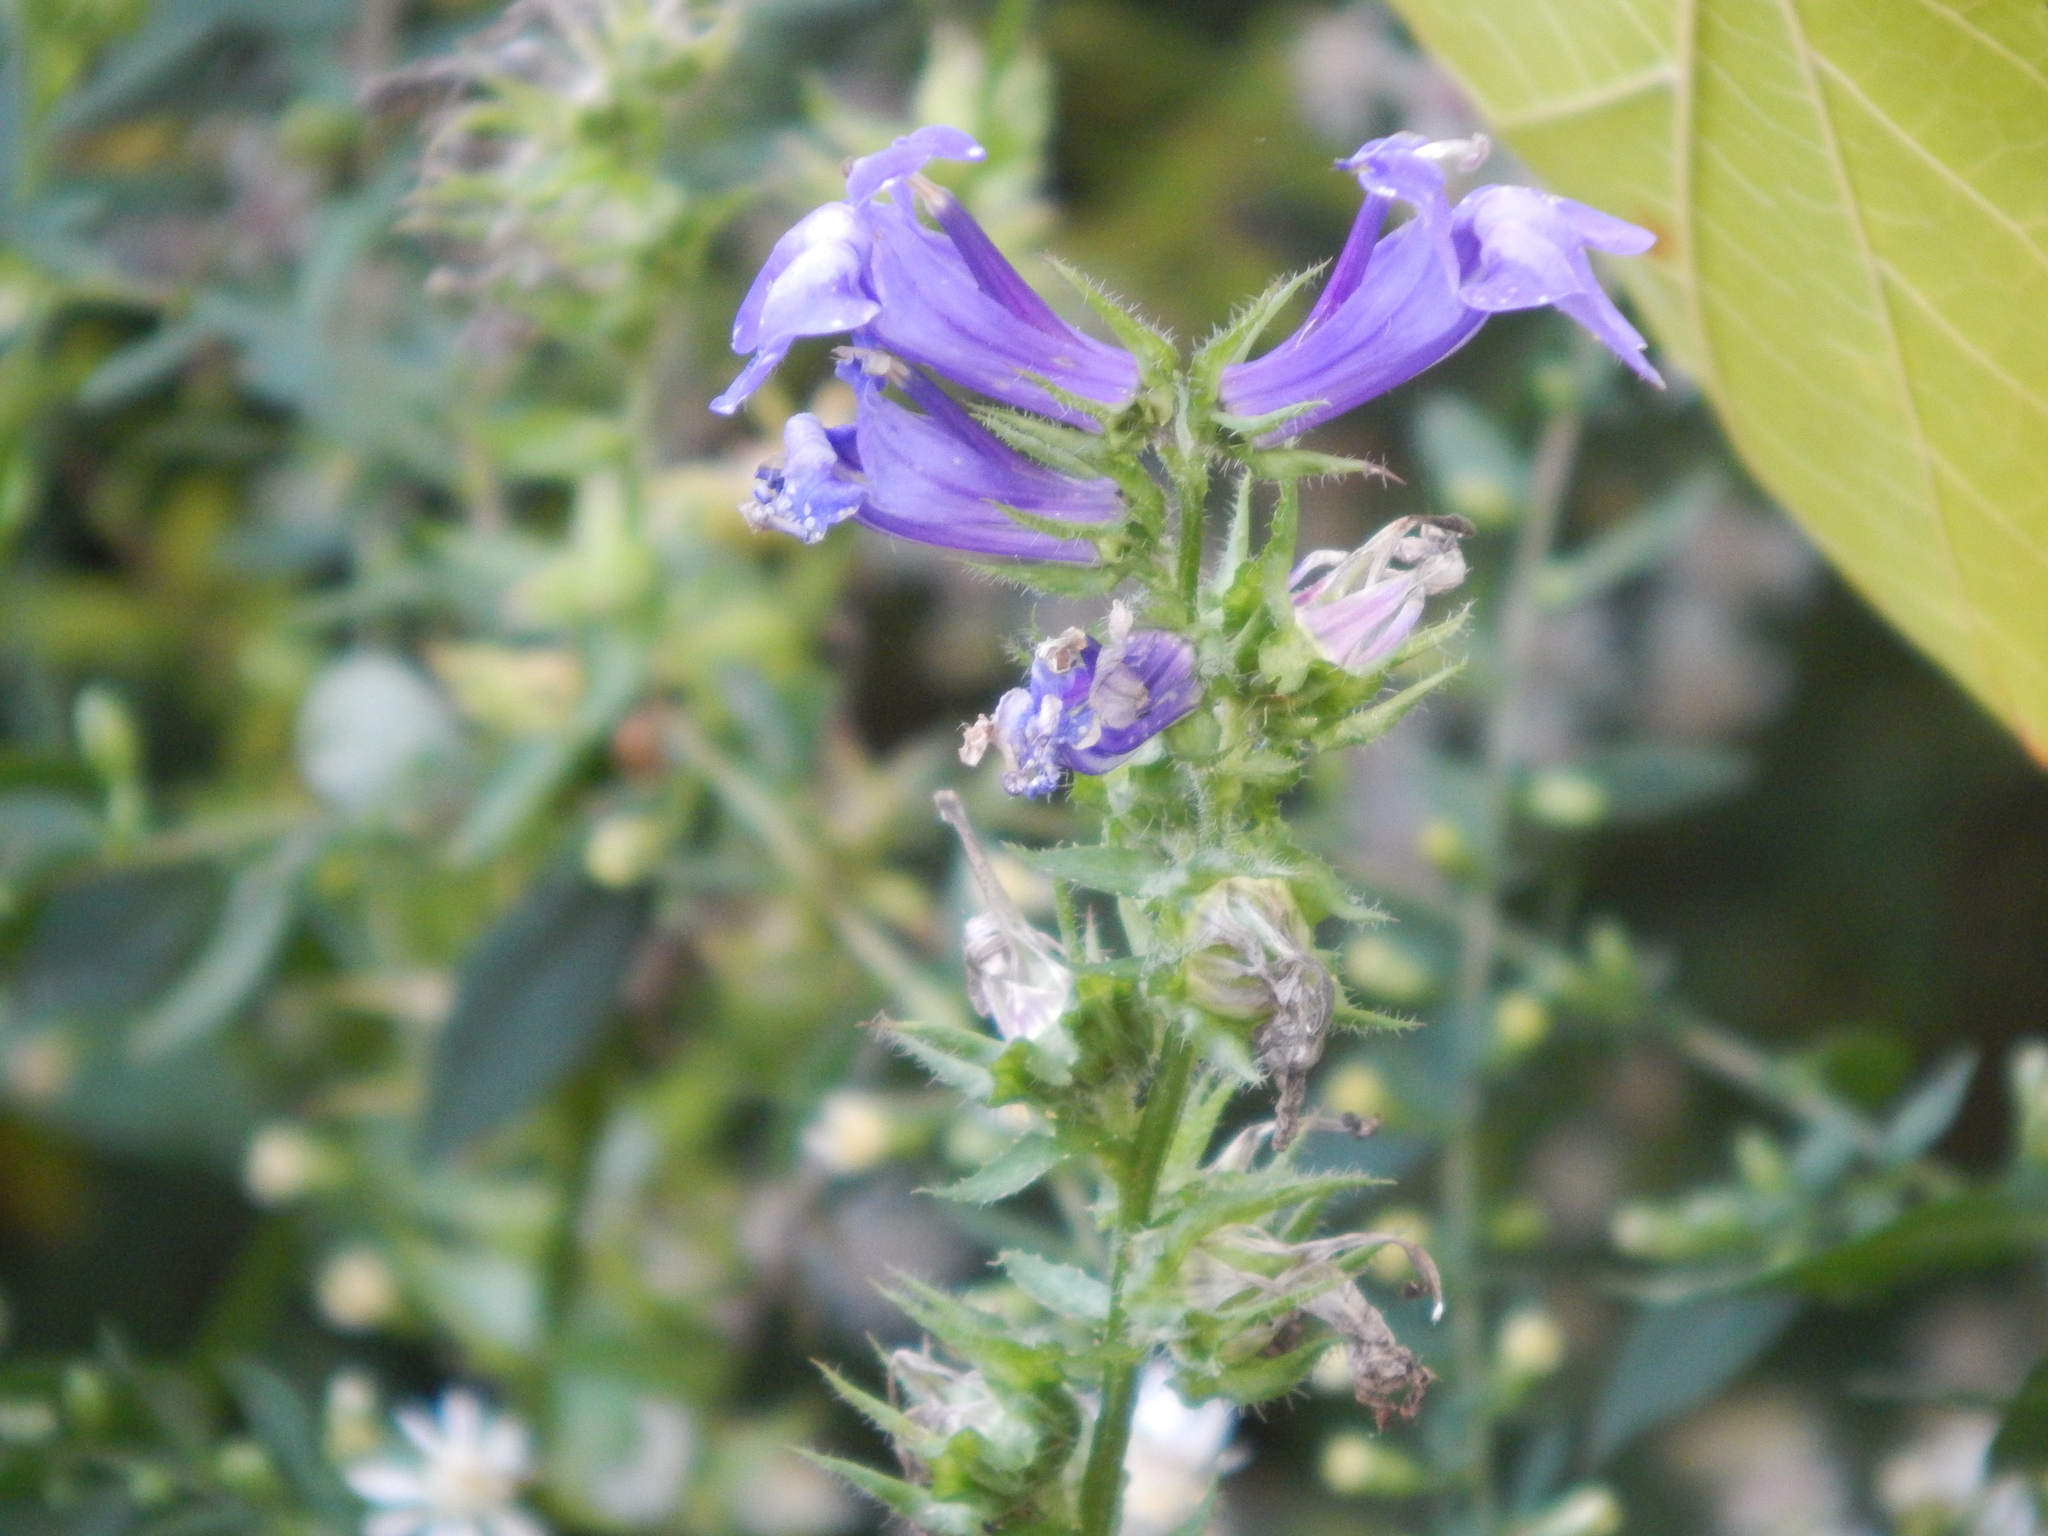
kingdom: Plantae
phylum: Tracheophyta
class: Magnoliopsida
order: Asterales
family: Campanulaceae
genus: Lobelia
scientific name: Lobelia siphilitica
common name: Great lobelia
